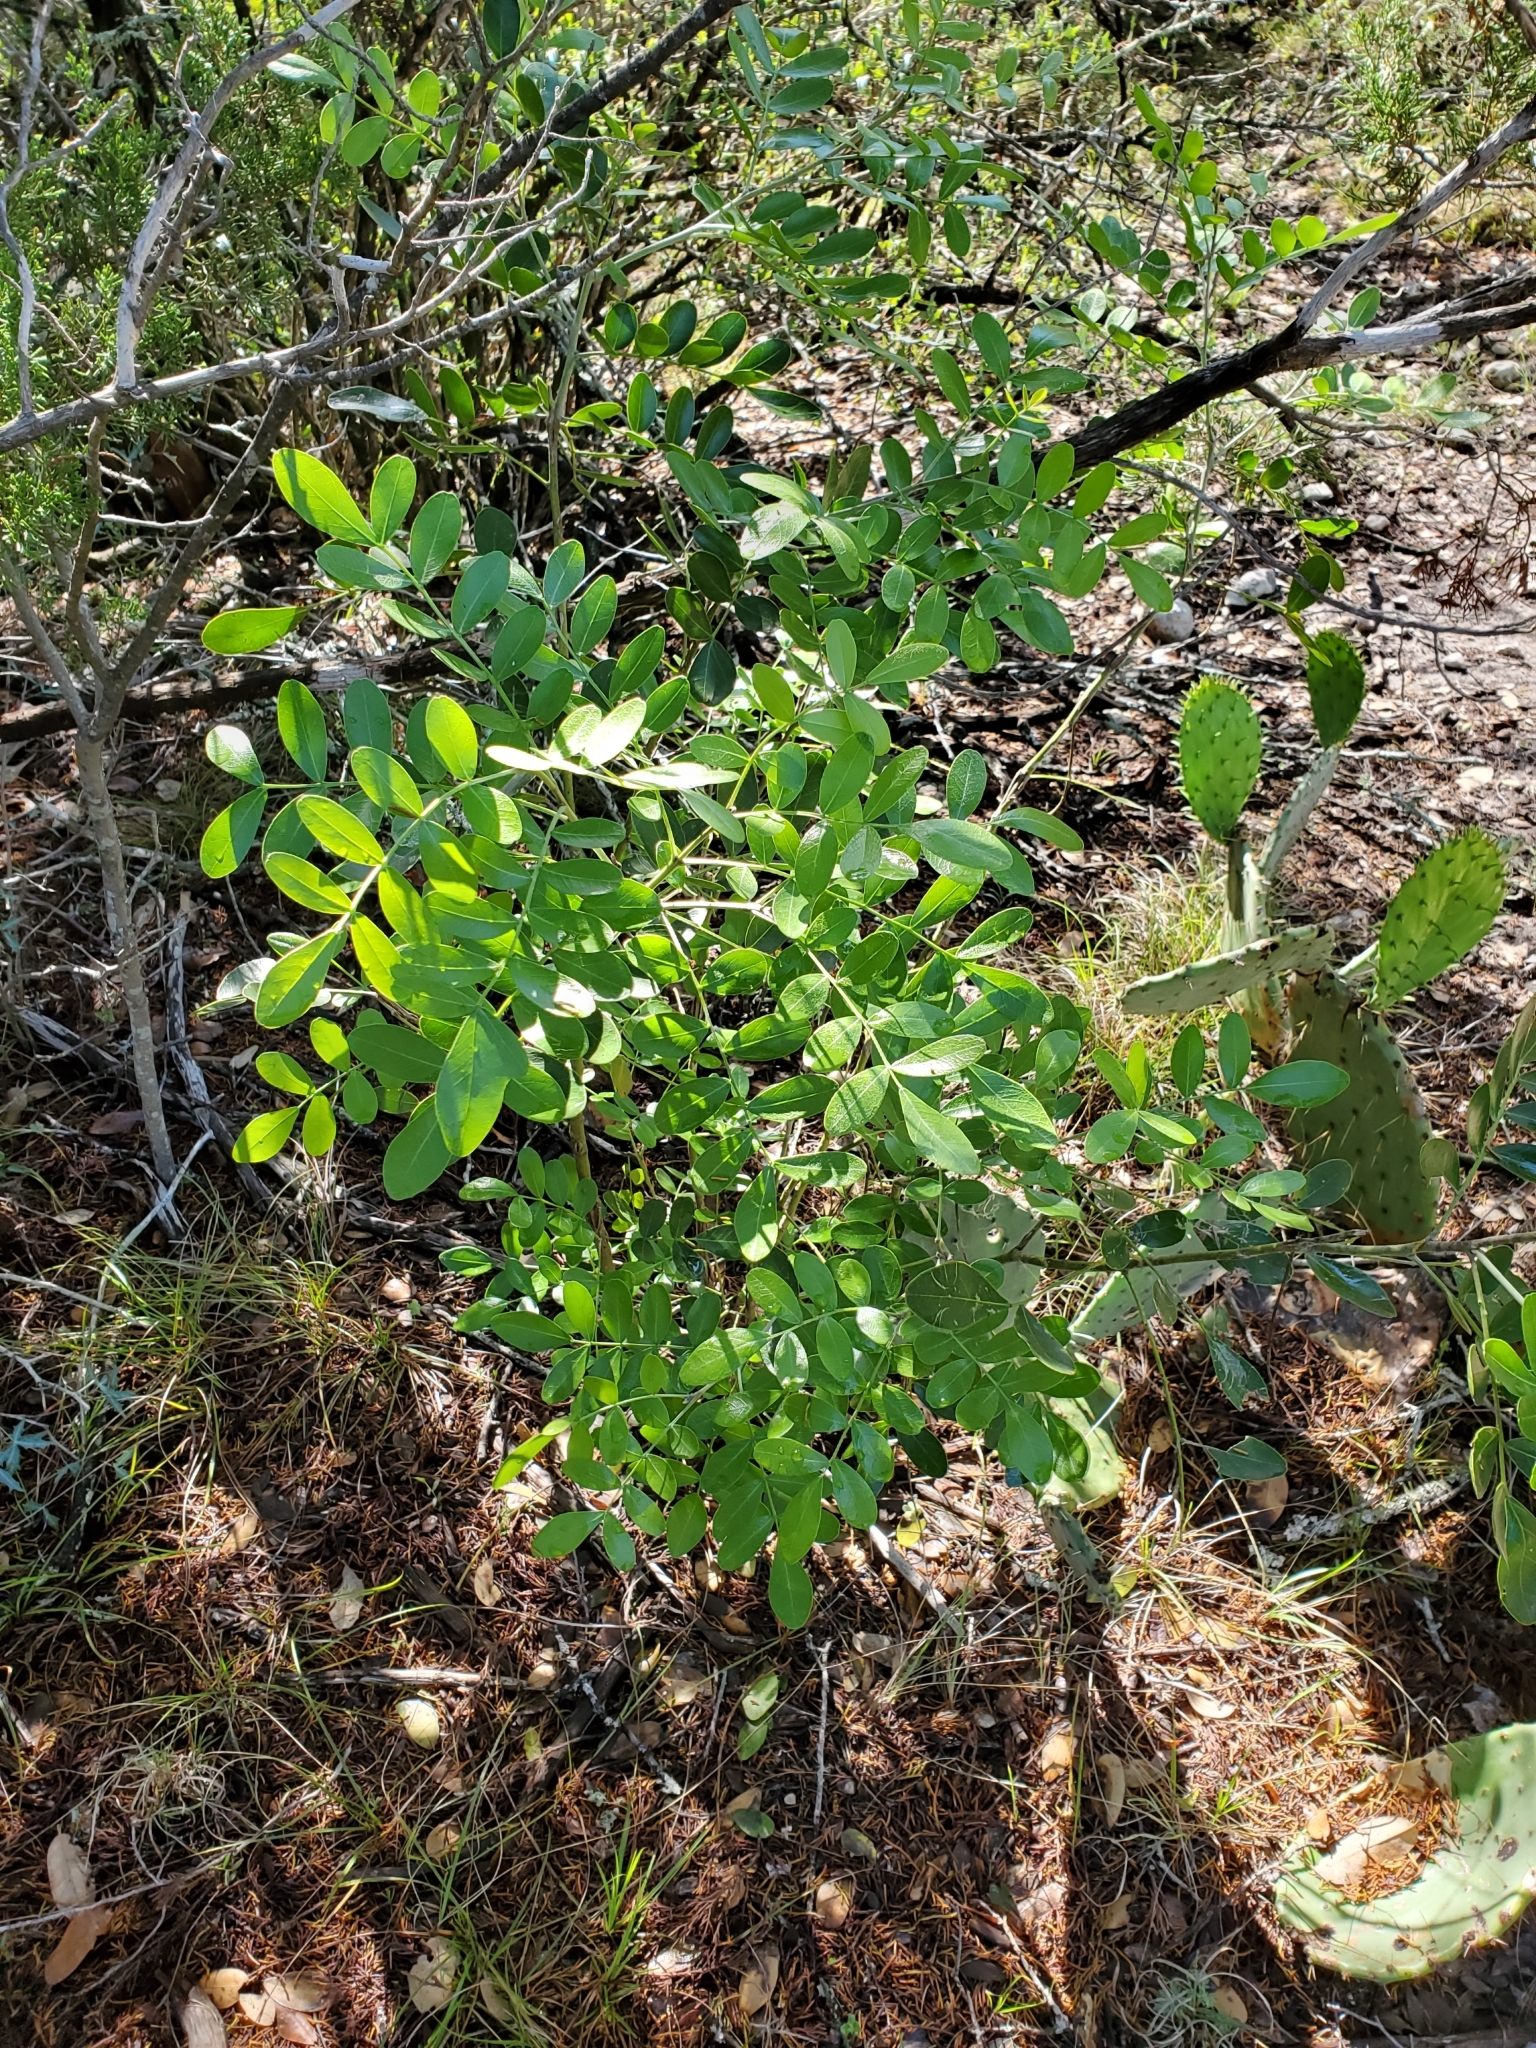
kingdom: Plantae
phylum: Tracheophyta
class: Magnoliopsida
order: Fabales
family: Fabaceae
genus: Dermatophyllum
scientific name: Dermatophyllum secundiflorum
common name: Texas-mountain-laurel
